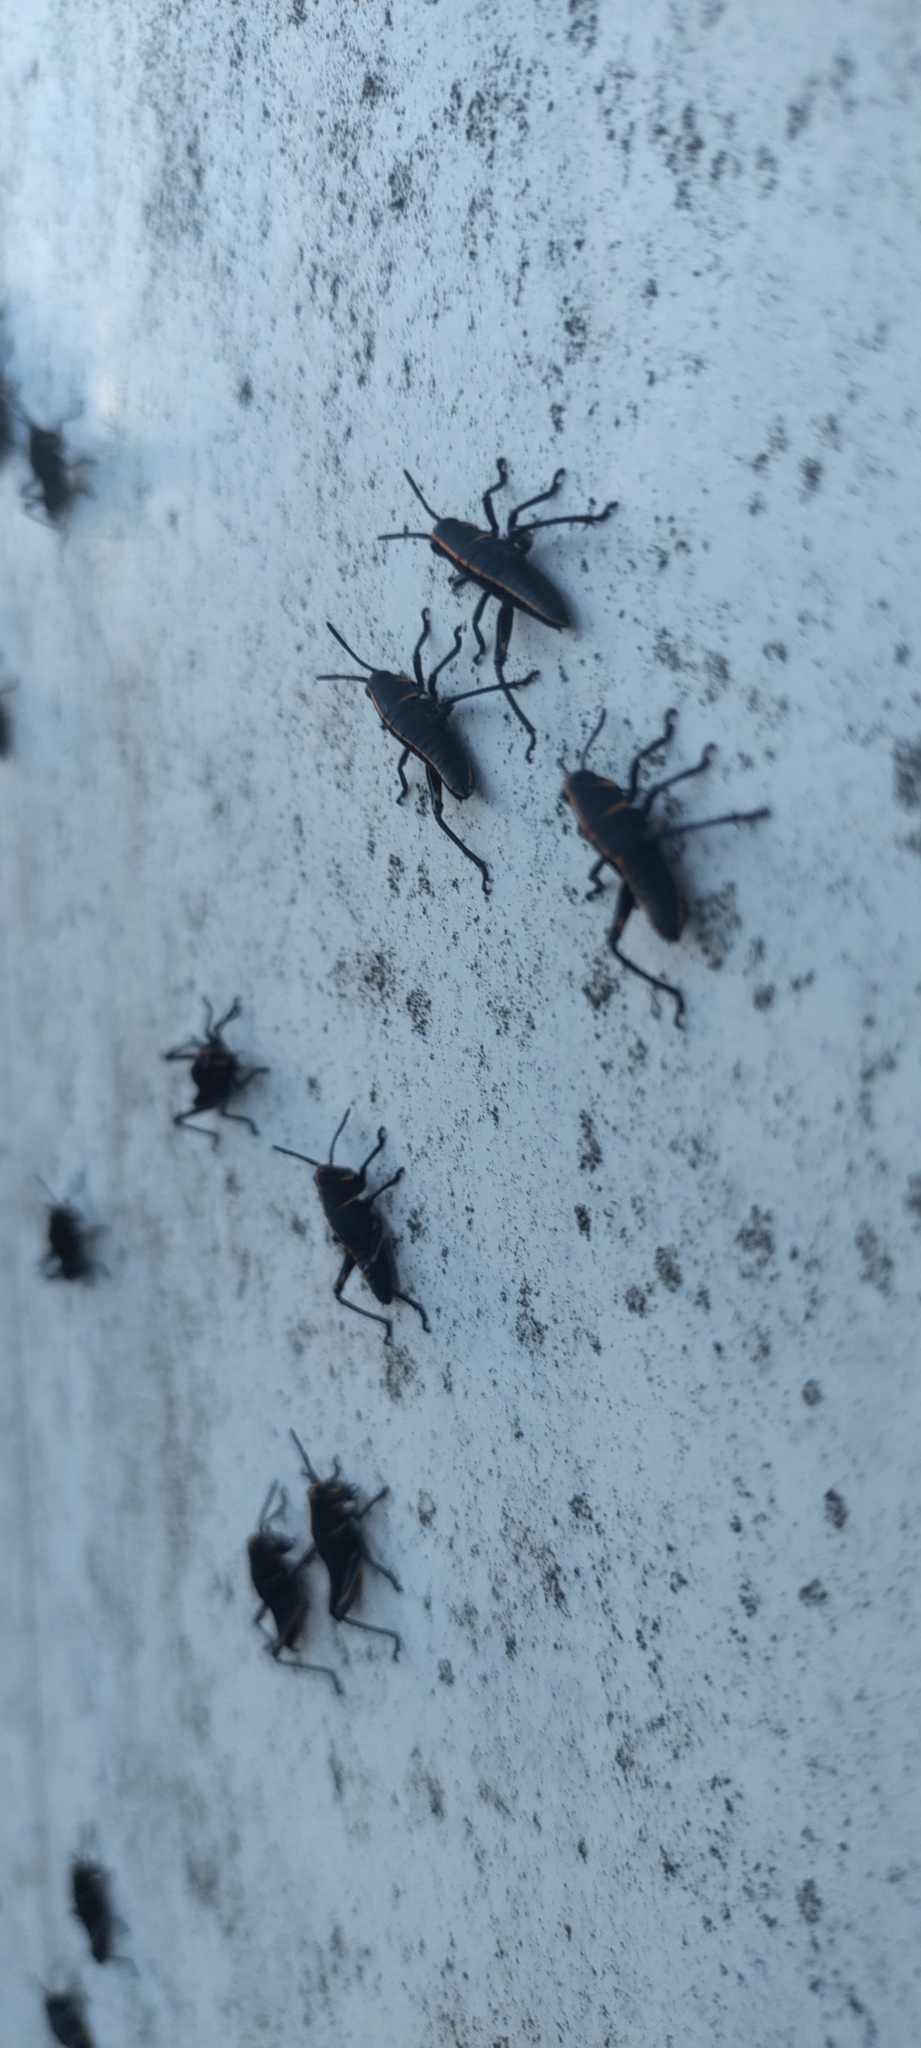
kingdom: Animalia
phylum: Arthropoda
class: Insecta
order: Orthoptera
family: Romaleidae
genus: Romalea
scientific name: Romalea microptera
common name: Eastern lubber grasshopper
